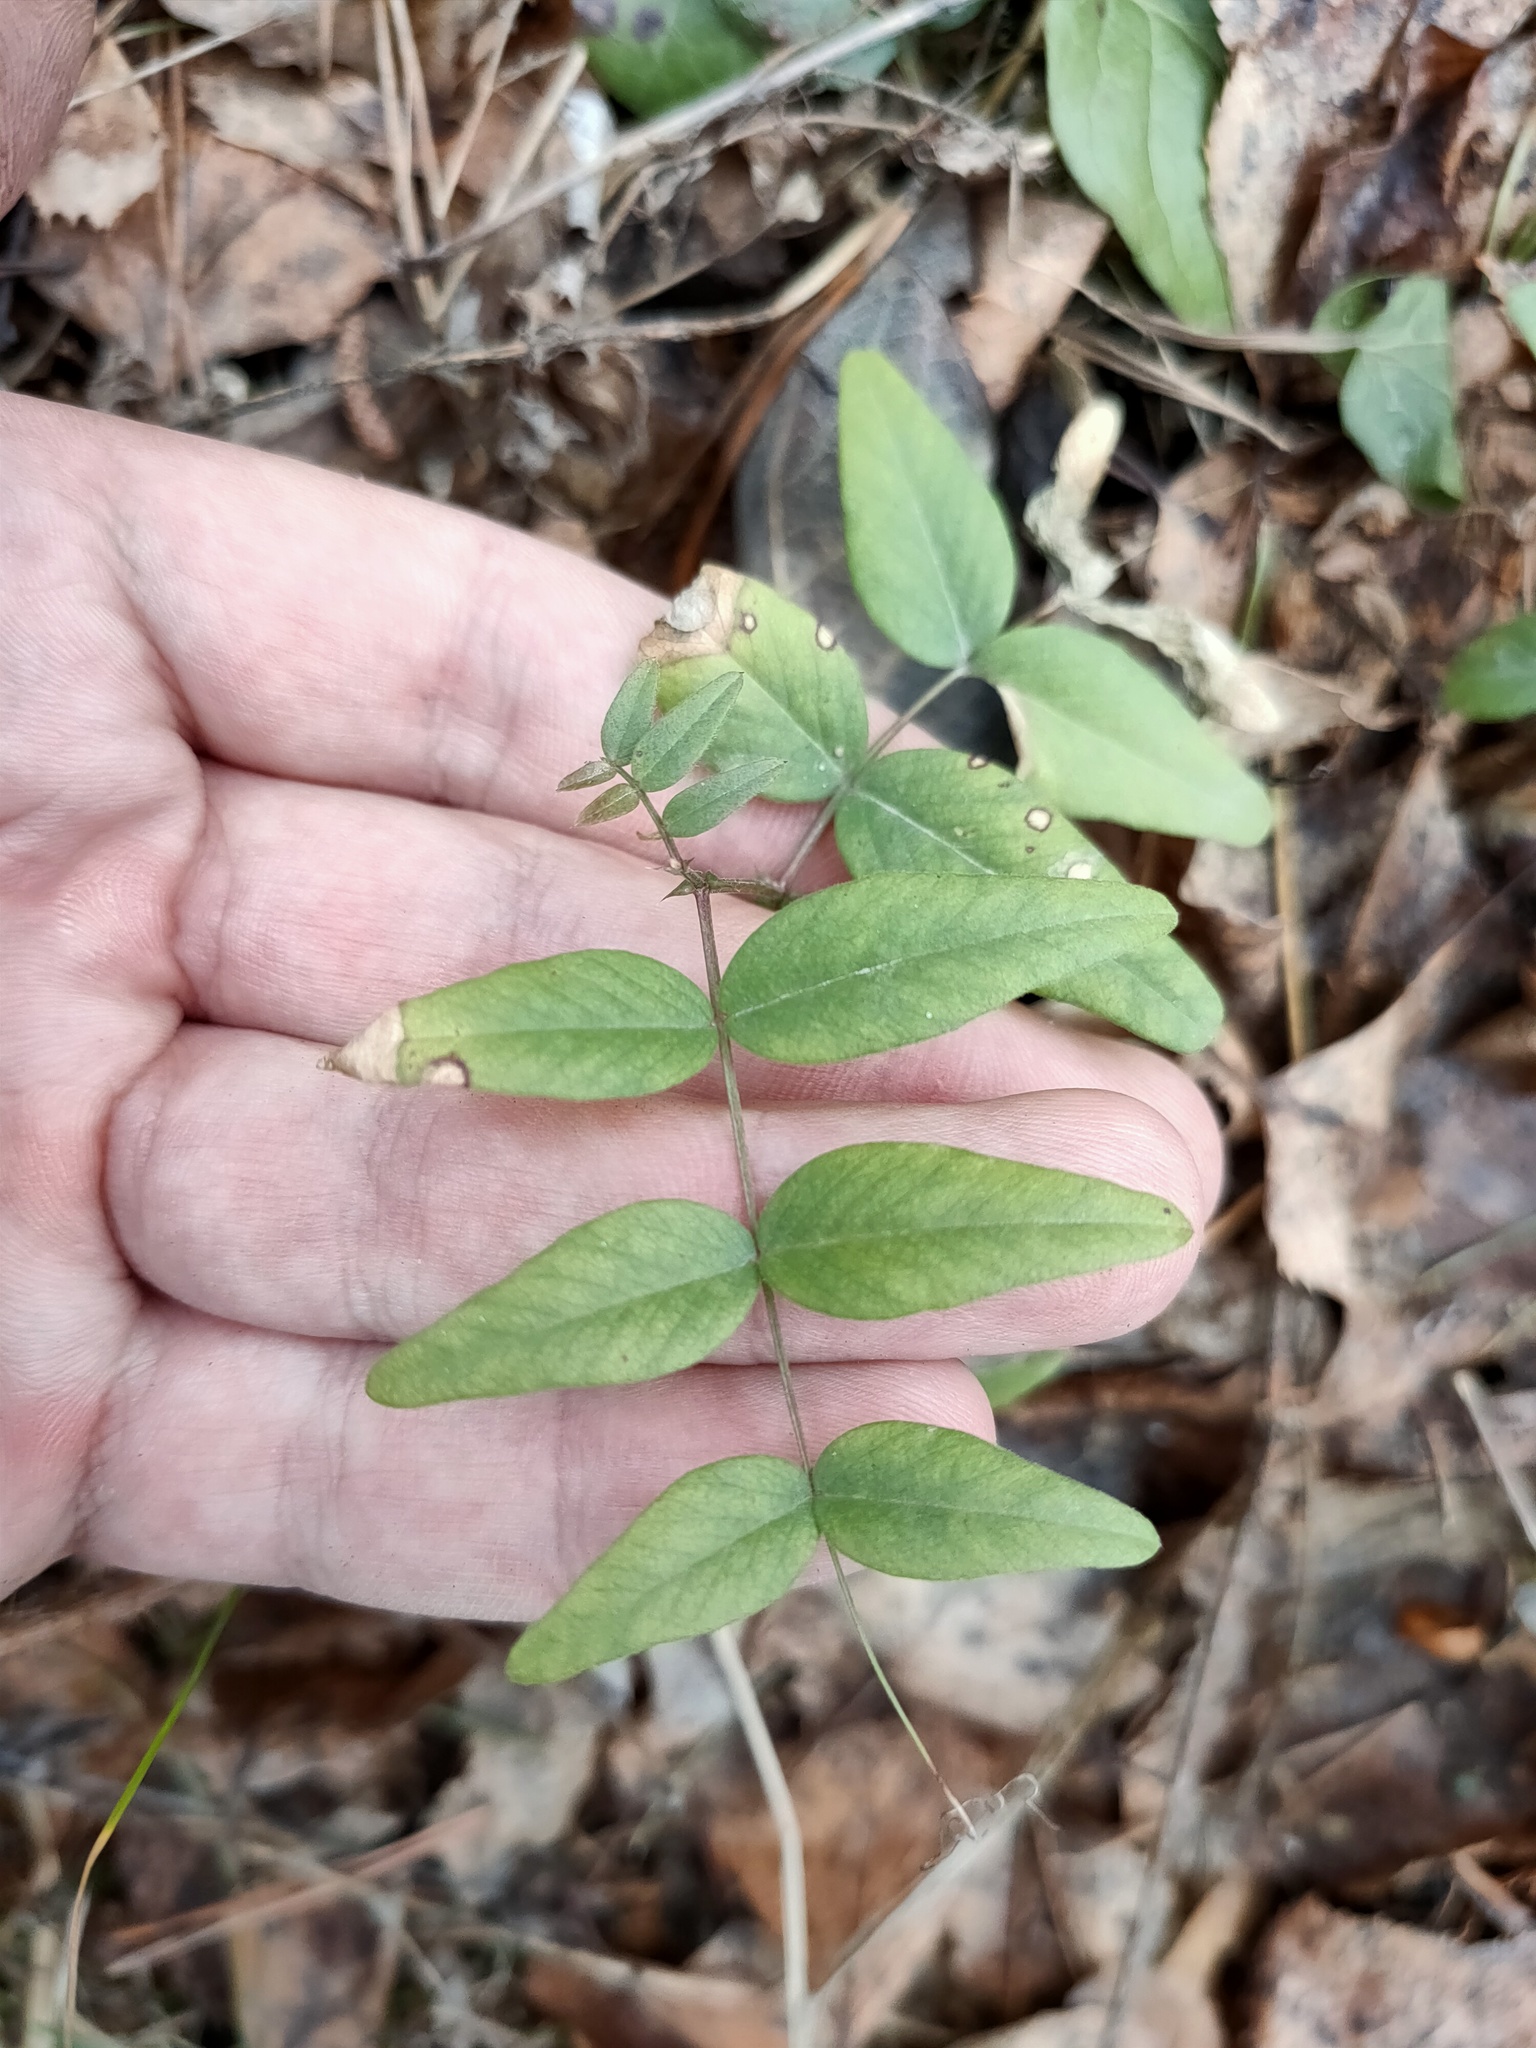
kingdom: Plantae
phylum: Tracheophyta
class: Magnoliopsida
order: Fabales
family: Fabaceae
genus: Vicia
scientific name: Vicia sepium
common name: Bush vetch
